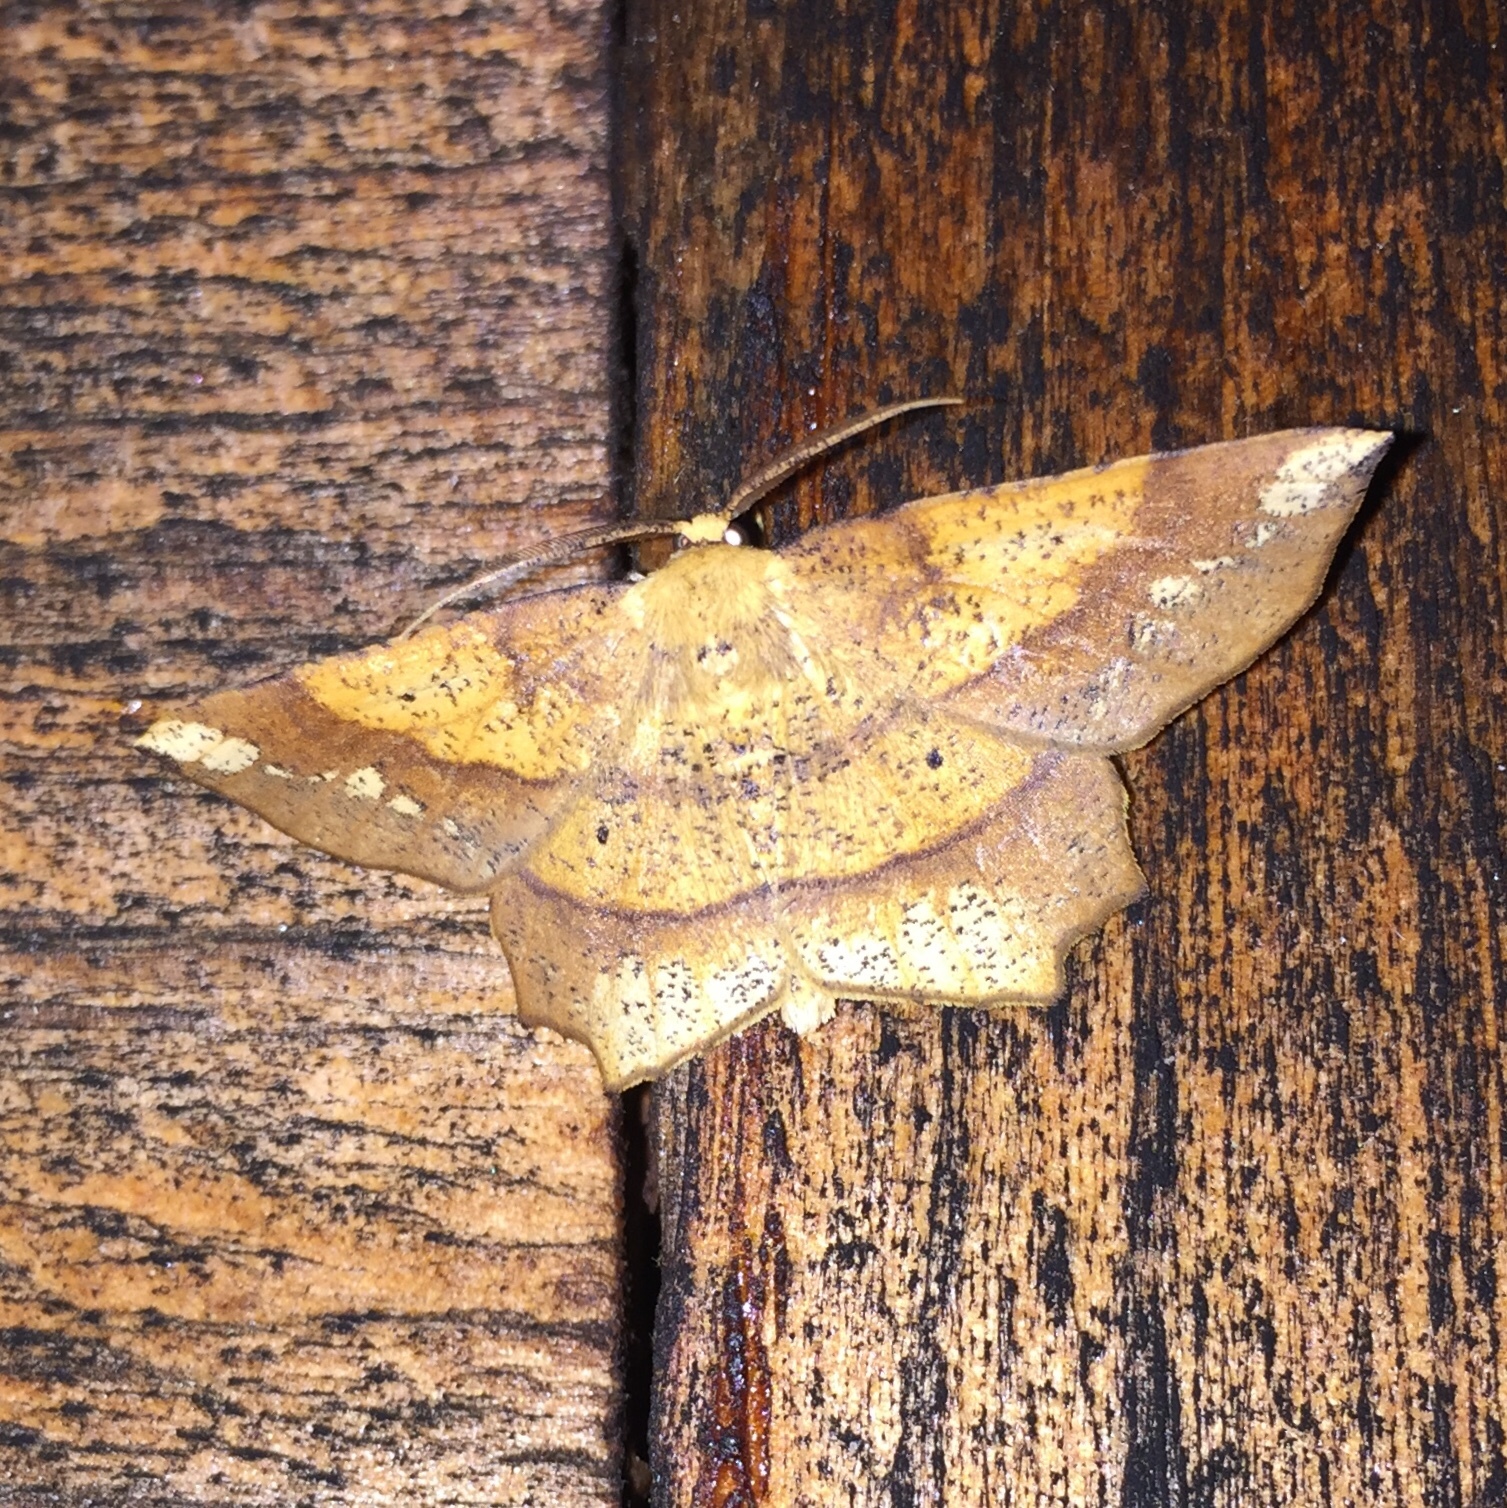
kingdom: Animalia
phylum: Arthropoda
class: Insecta
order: Lepidoptera
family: Geometridae
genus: Euchlaena
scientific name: Euchlaena amoenaria
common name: Deep yellow euchlaena
